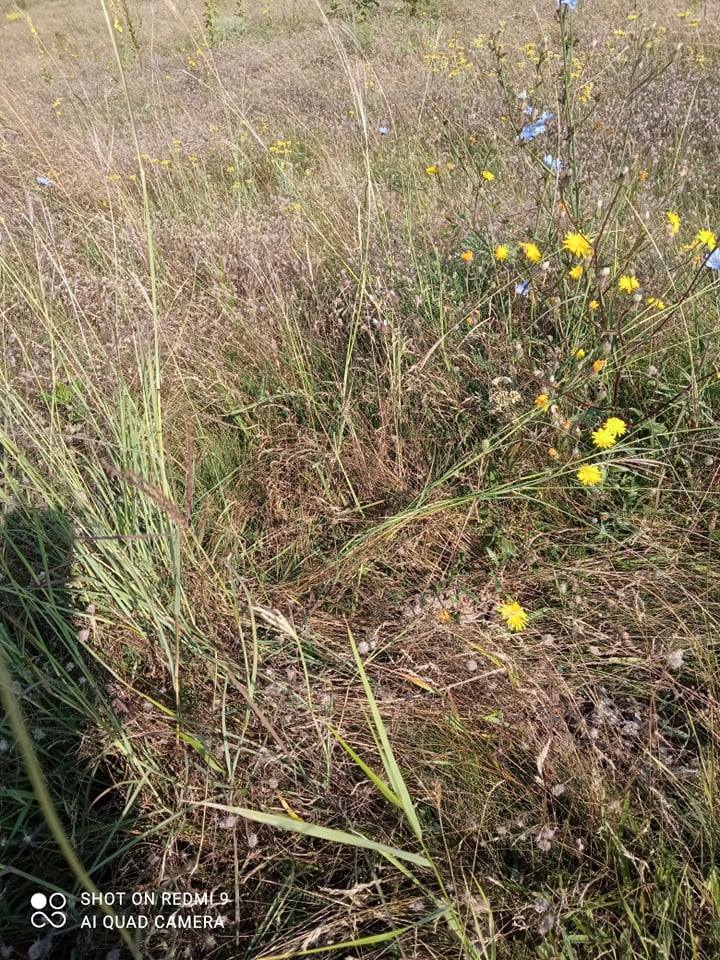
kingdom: Plantae
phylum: Tracheophyta
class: Magnoliopsida
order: Asterales
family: Asteraceae
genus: Crepis
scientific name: Crepis foetida
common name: Stinking hawk's-beard
